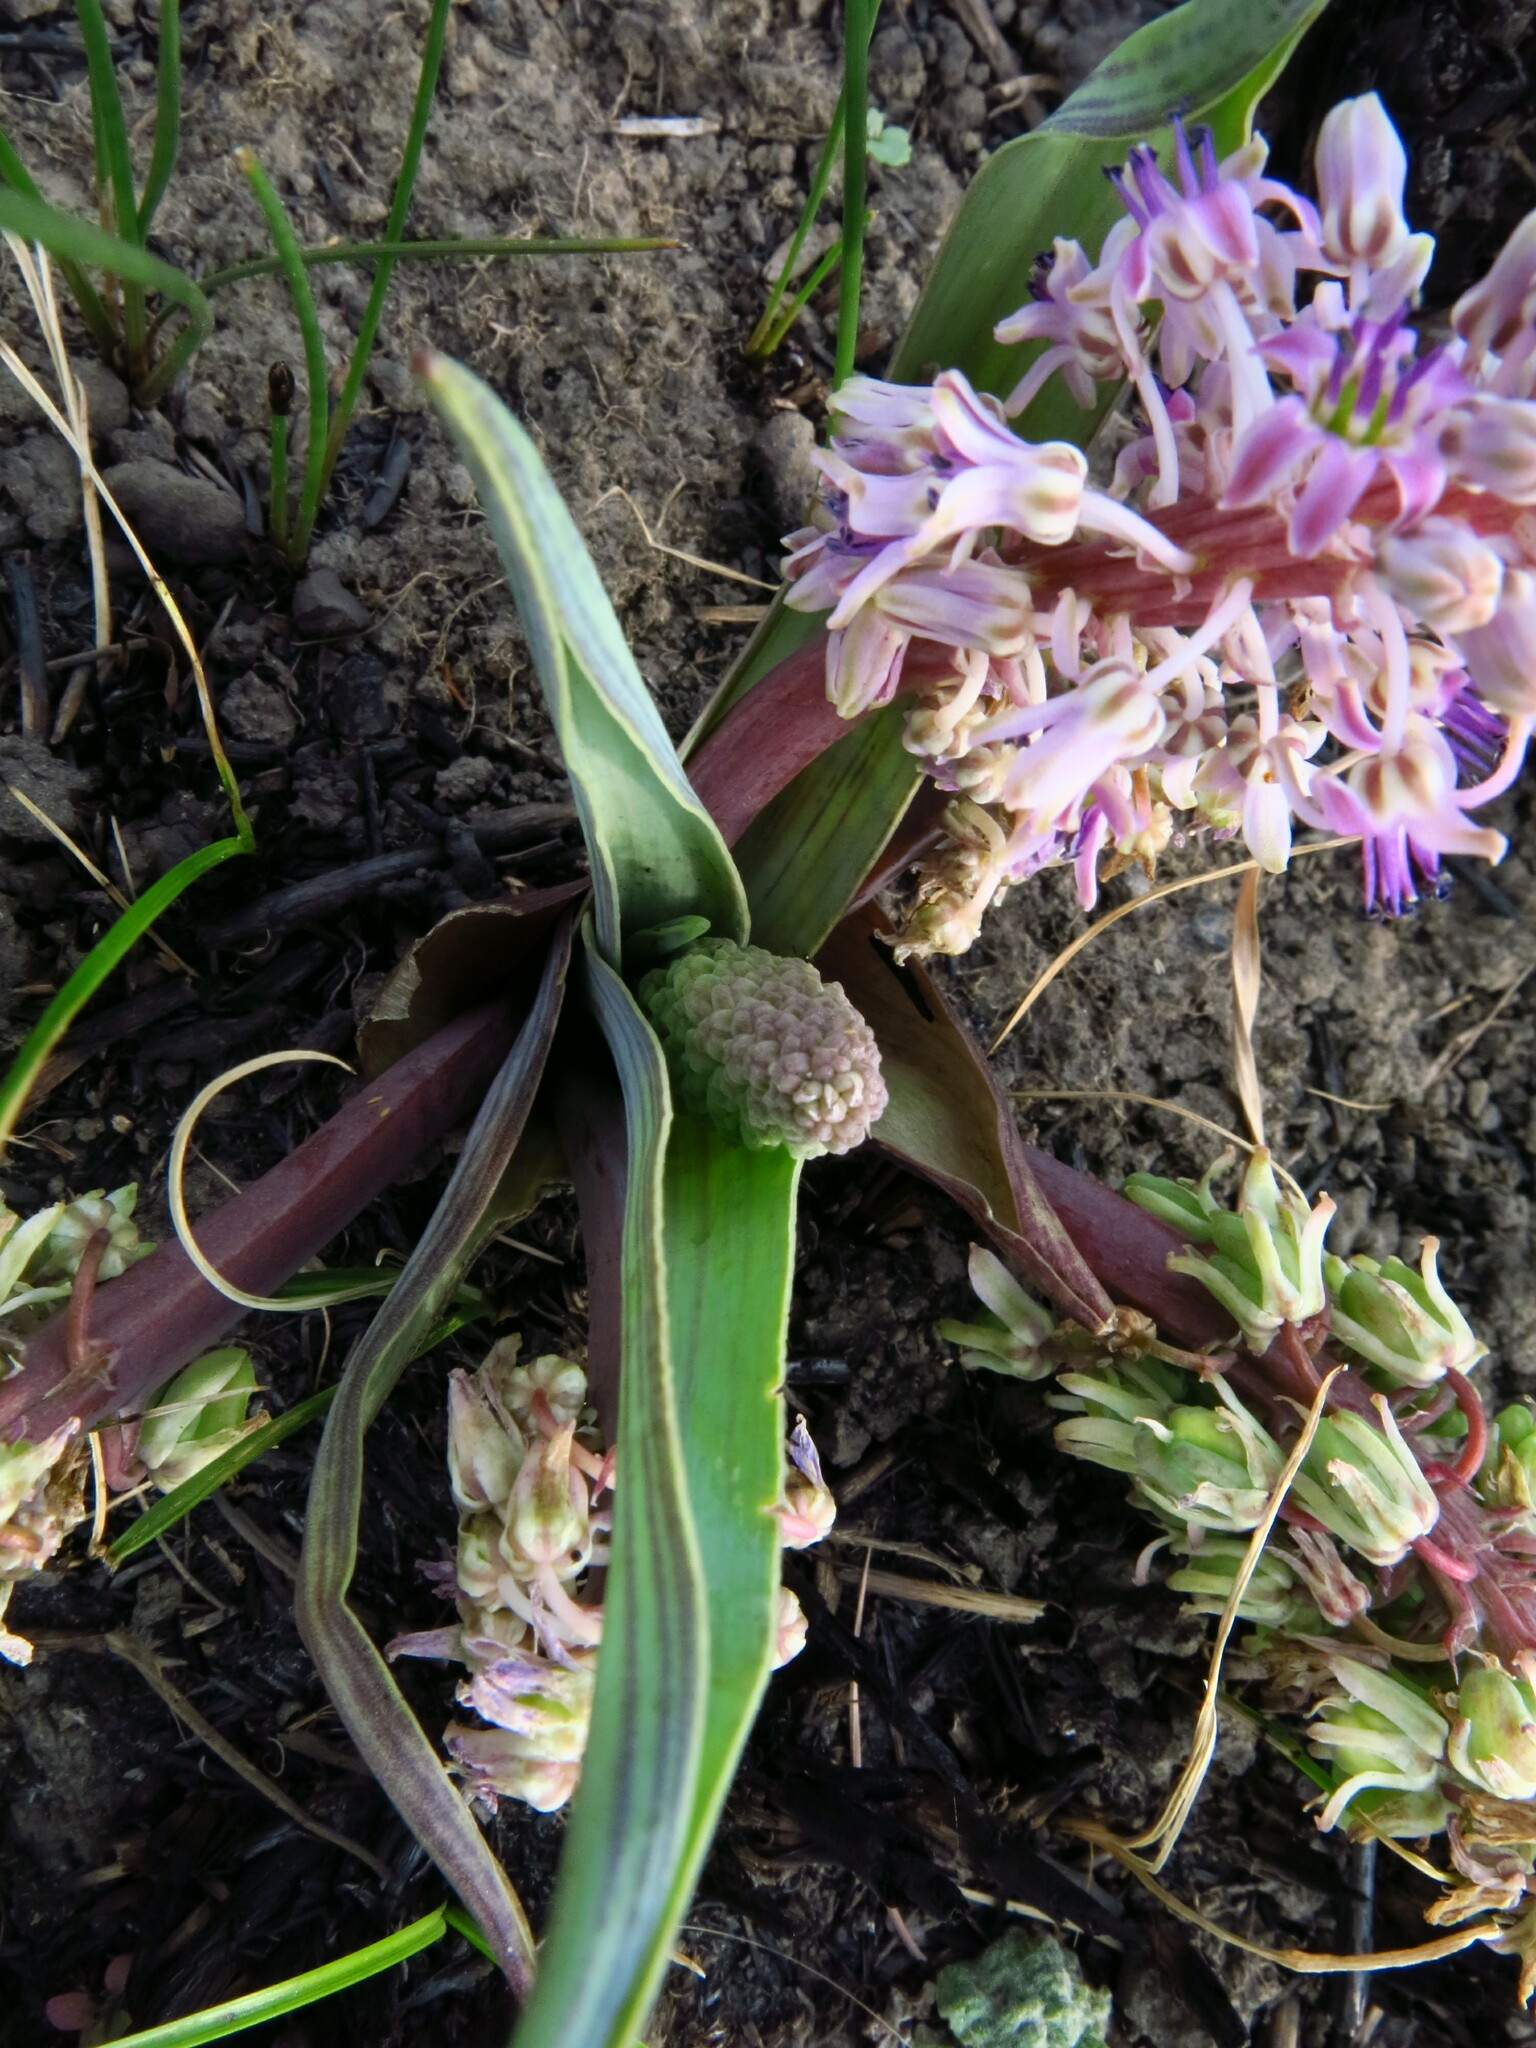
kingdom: Plantae
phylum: Tracheophyta
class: Liliopsida
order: Asparagales
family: Asparagaceae
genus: Ledebouria
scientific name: Ledebouria cooperi
